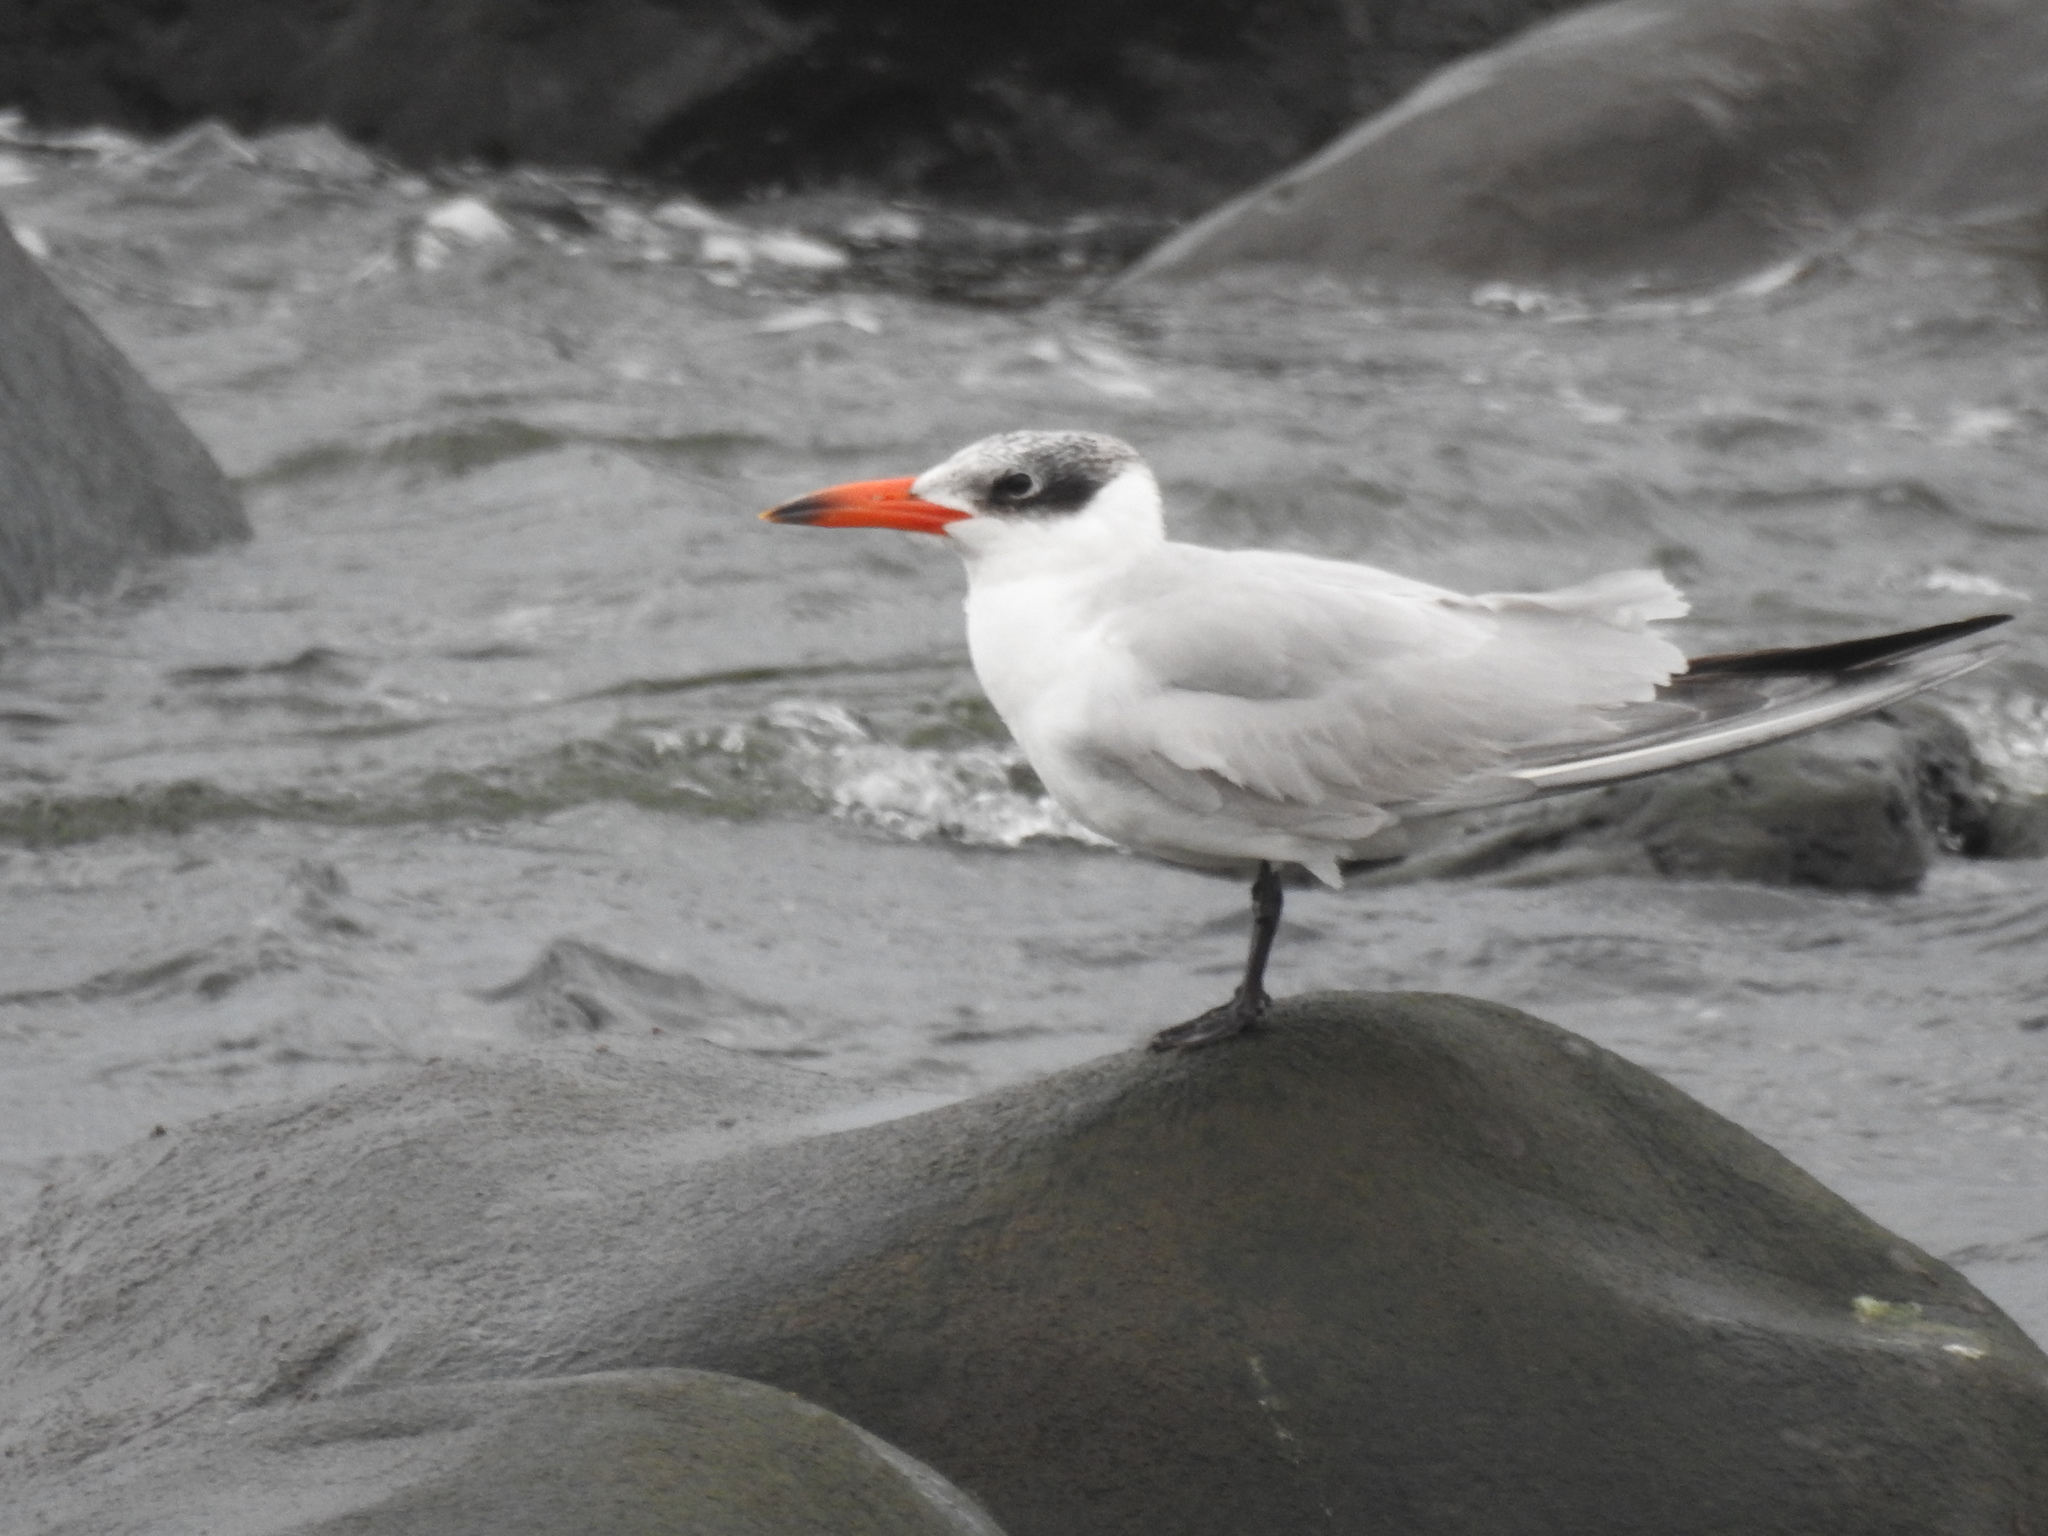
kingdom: Animalia
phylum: Chordata
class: Aves
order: Charadriiformes
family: Laridae
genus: Hydroprogne
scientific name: Hydroprogne caspia
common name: Caspian tern
